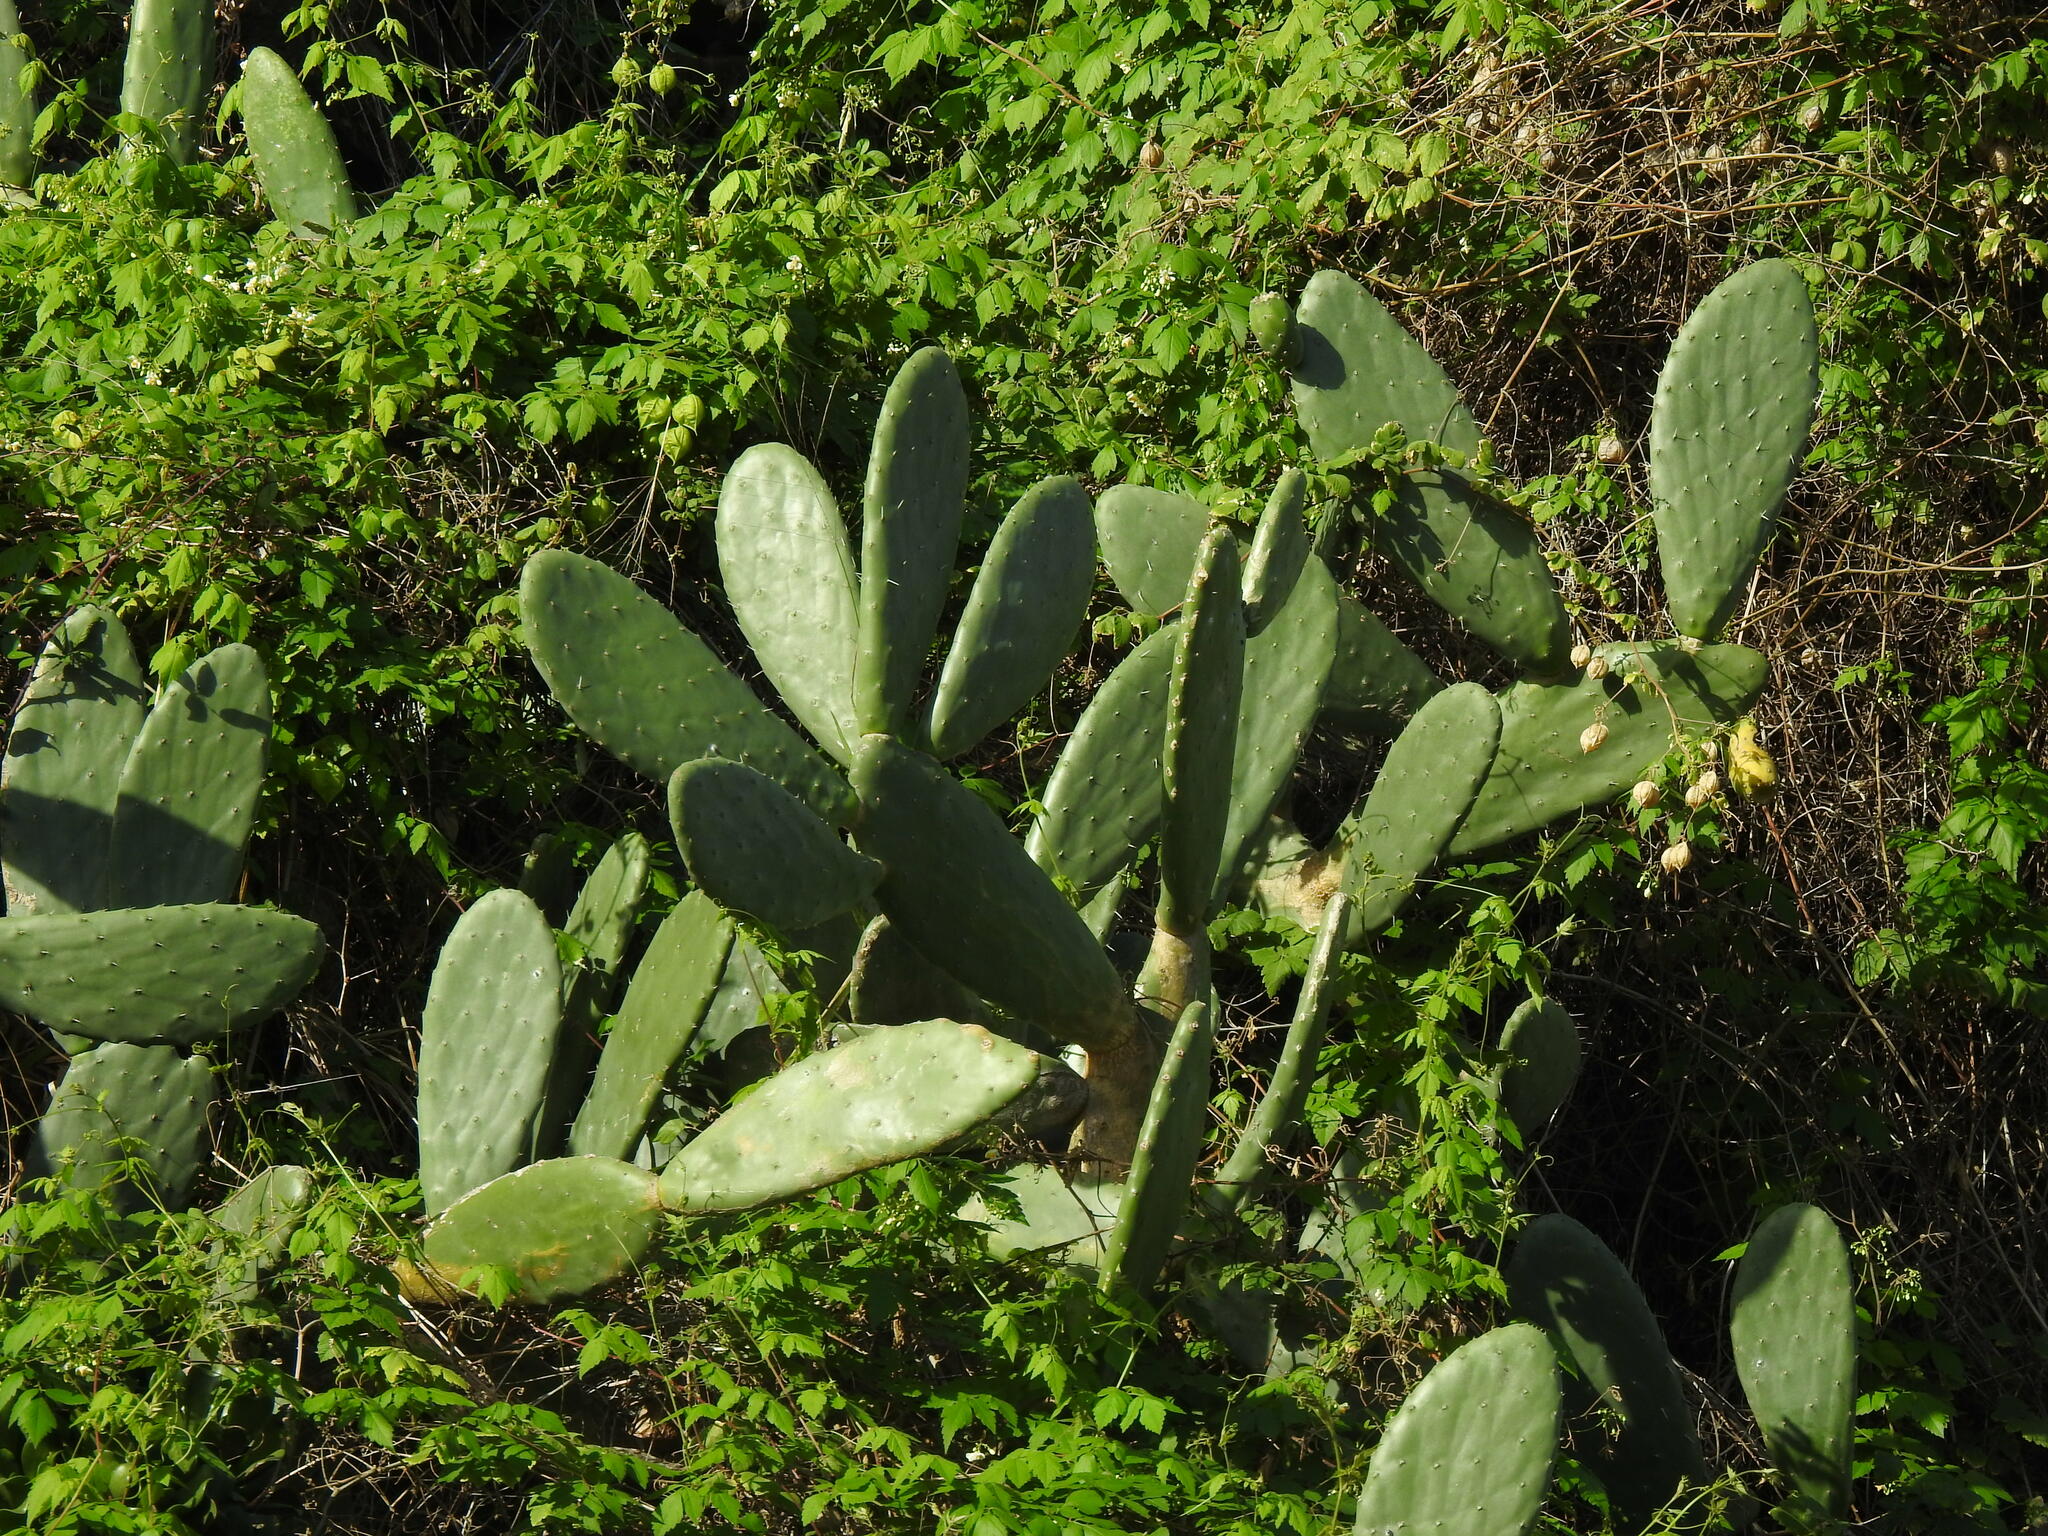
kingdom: Plantae
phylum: Tracheophyta
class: Magnoliopsida
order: Caryophyllales
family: Cactaceae
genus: Opuntia
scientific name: Opuntia ficus-indica
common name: Barbary fig
